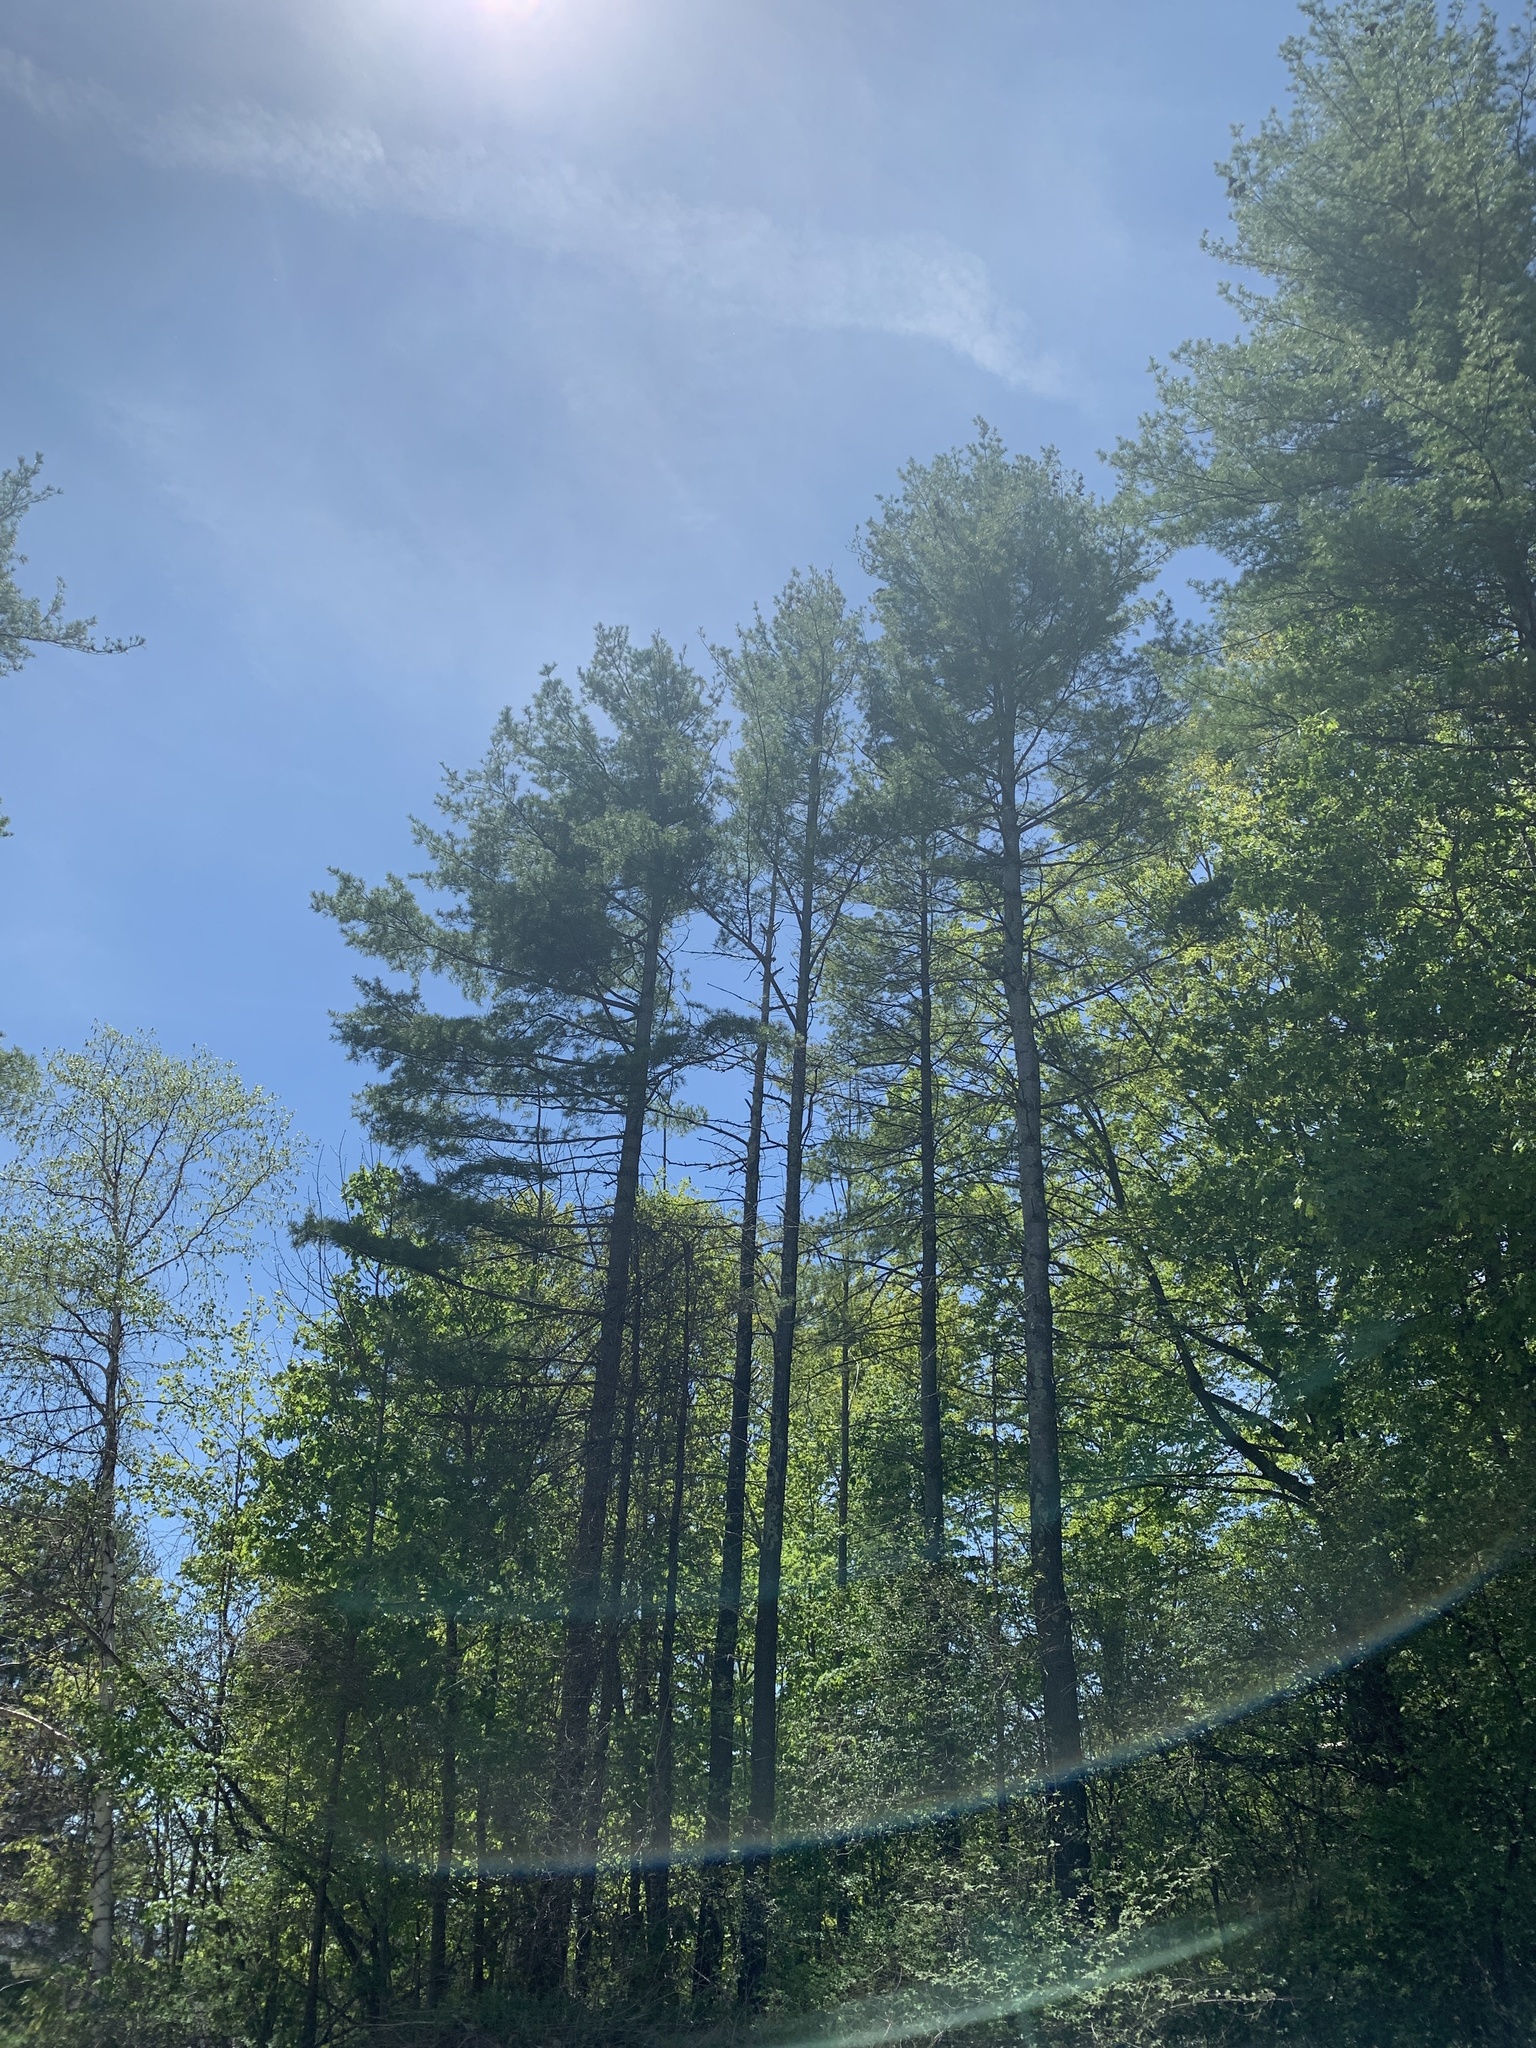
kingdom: Plantae
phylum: Tracheophyta
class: Pinopsida
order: Pinales
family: Pinaceae
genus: Pinus
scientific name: Pinus strobus
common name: Weymouth pine
